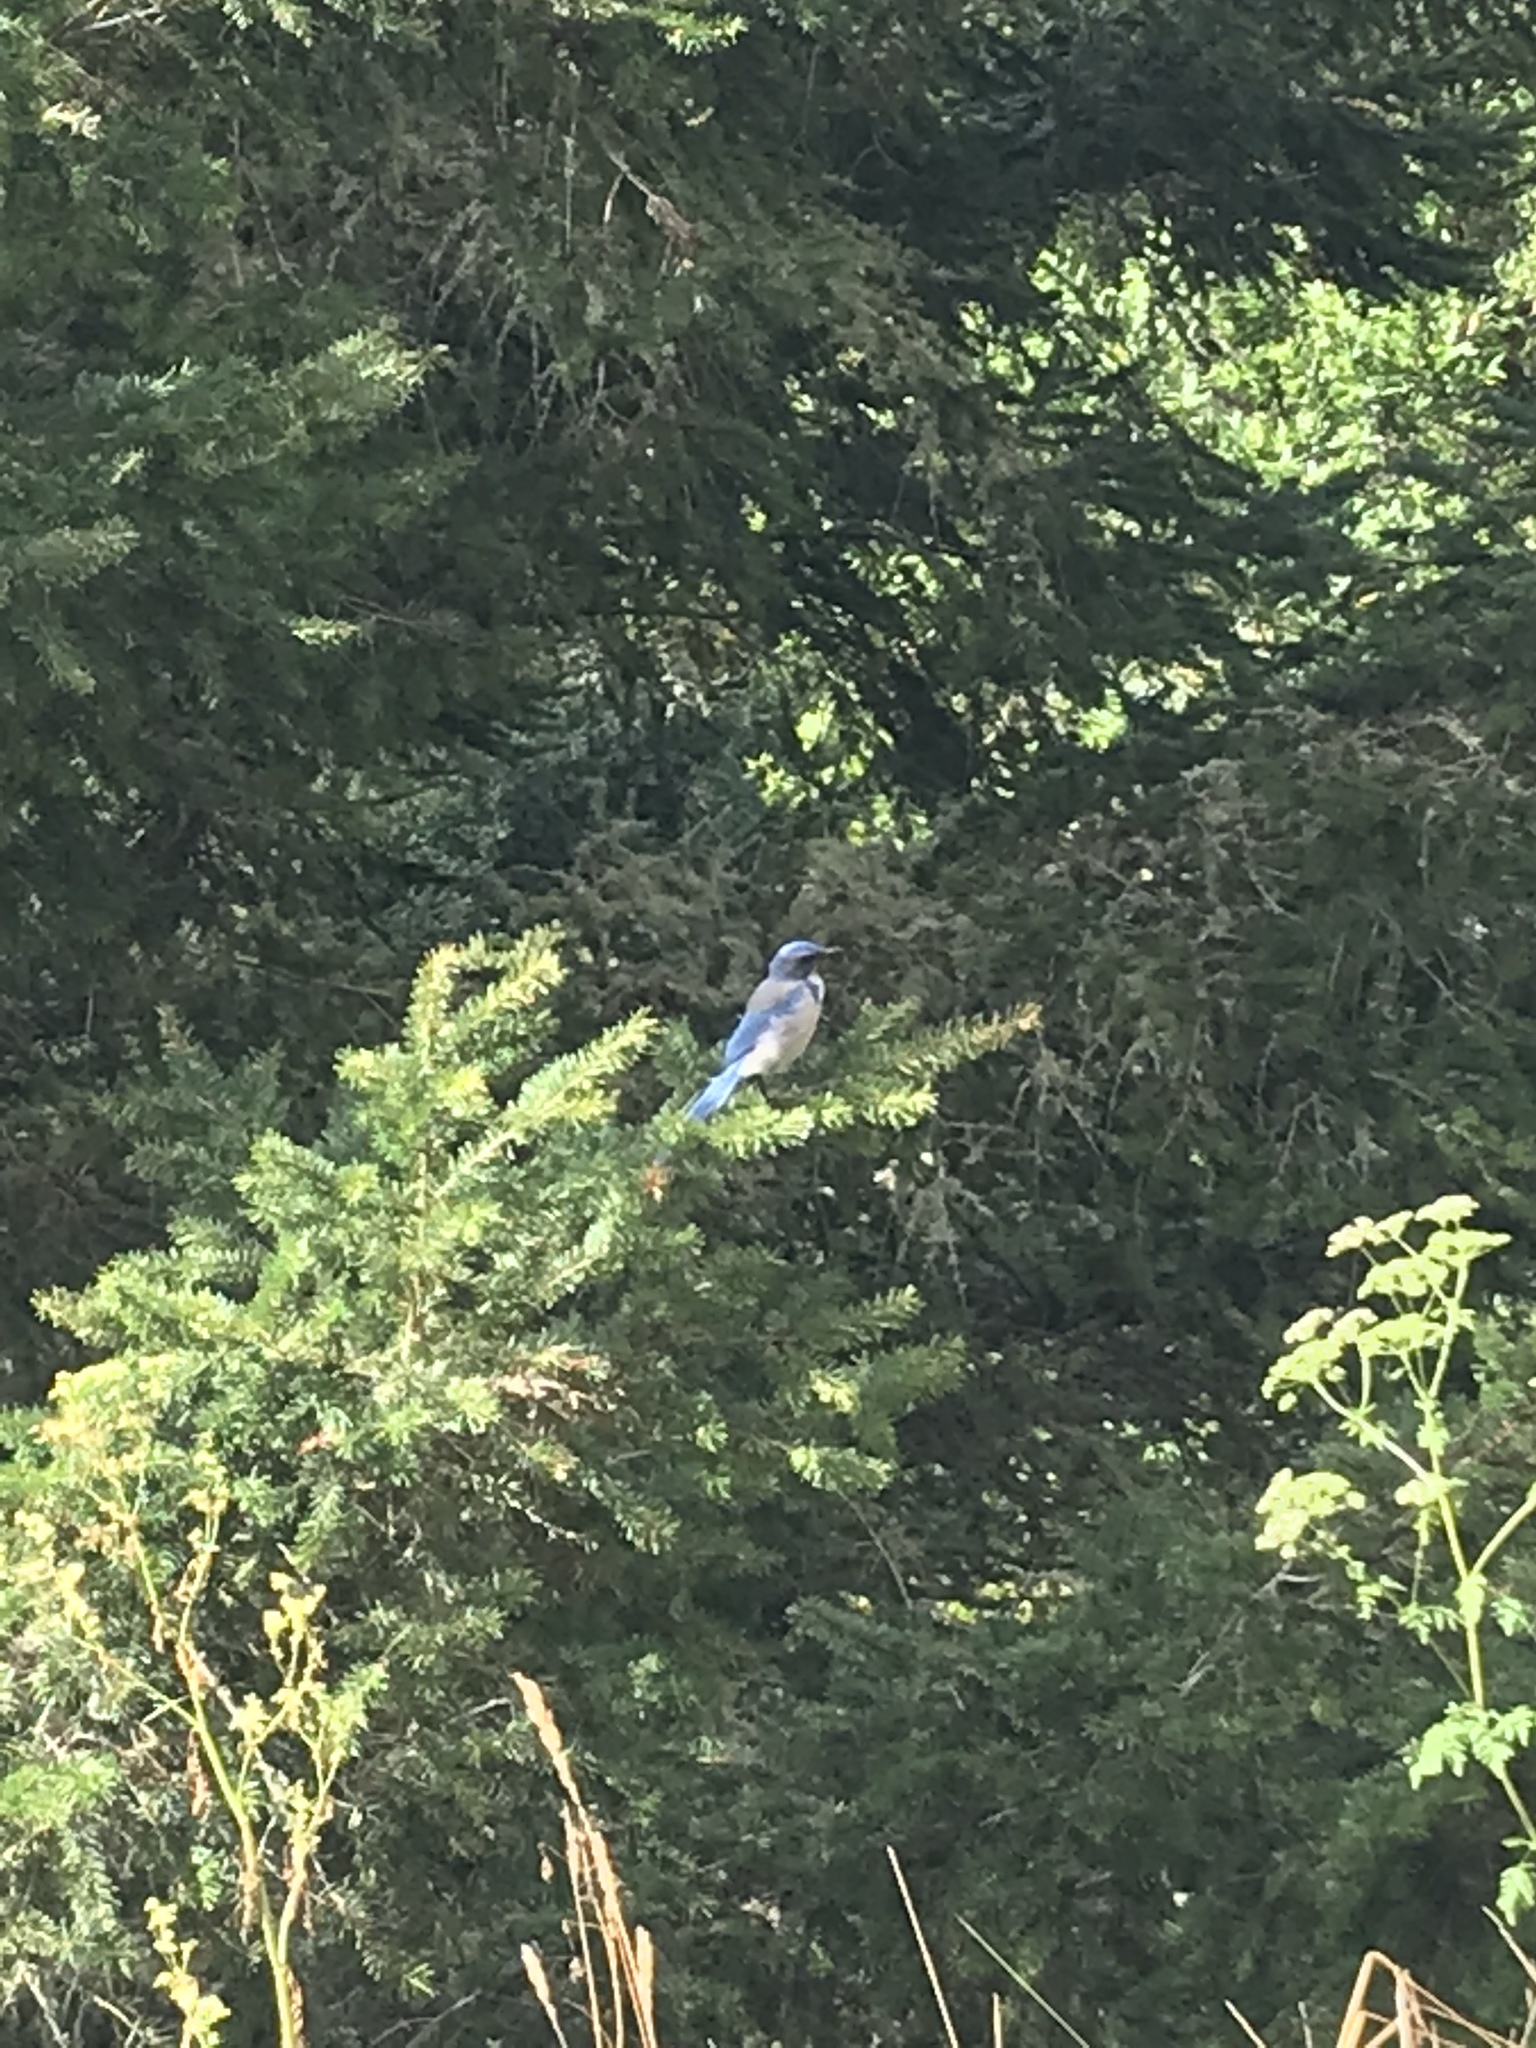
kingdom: Animalia
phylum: Chordata
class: Aves
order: Passeriformes
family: Corvidae
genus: Aphelocoma
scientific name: Aphelocoma californica
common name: California scrub-jay
